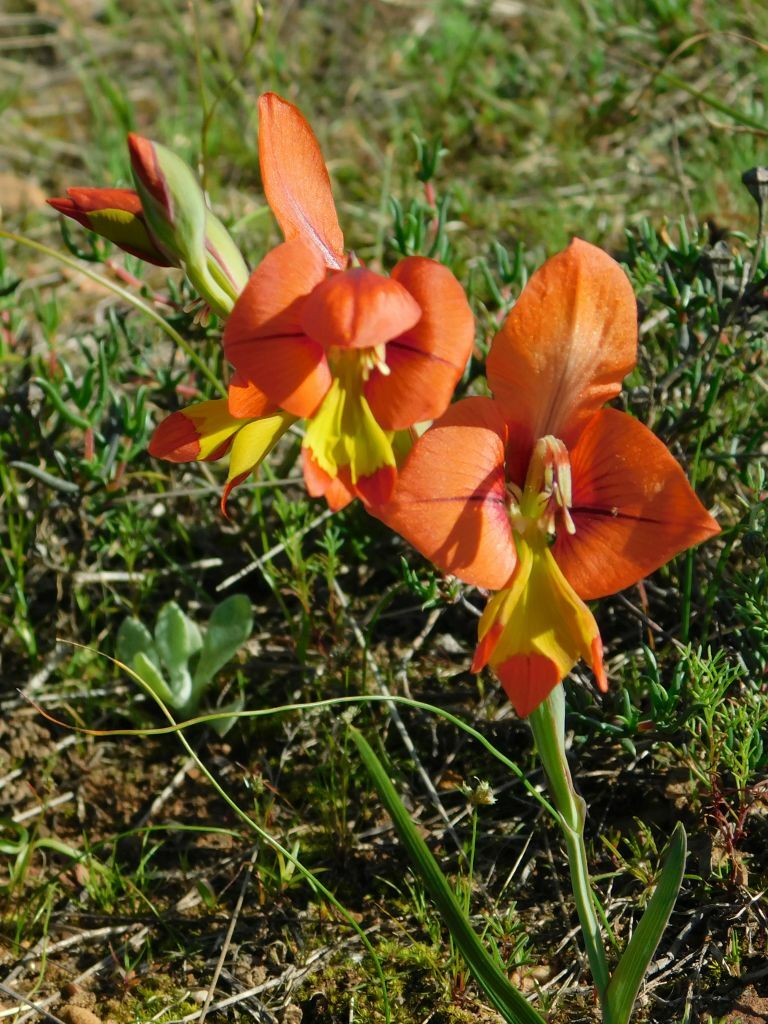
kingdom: Plantae
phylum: Tracheophyta
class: Liliopsida
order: Asparagales
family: Iridaceae
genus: Gladiolus
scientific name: Gladiolus alatus
